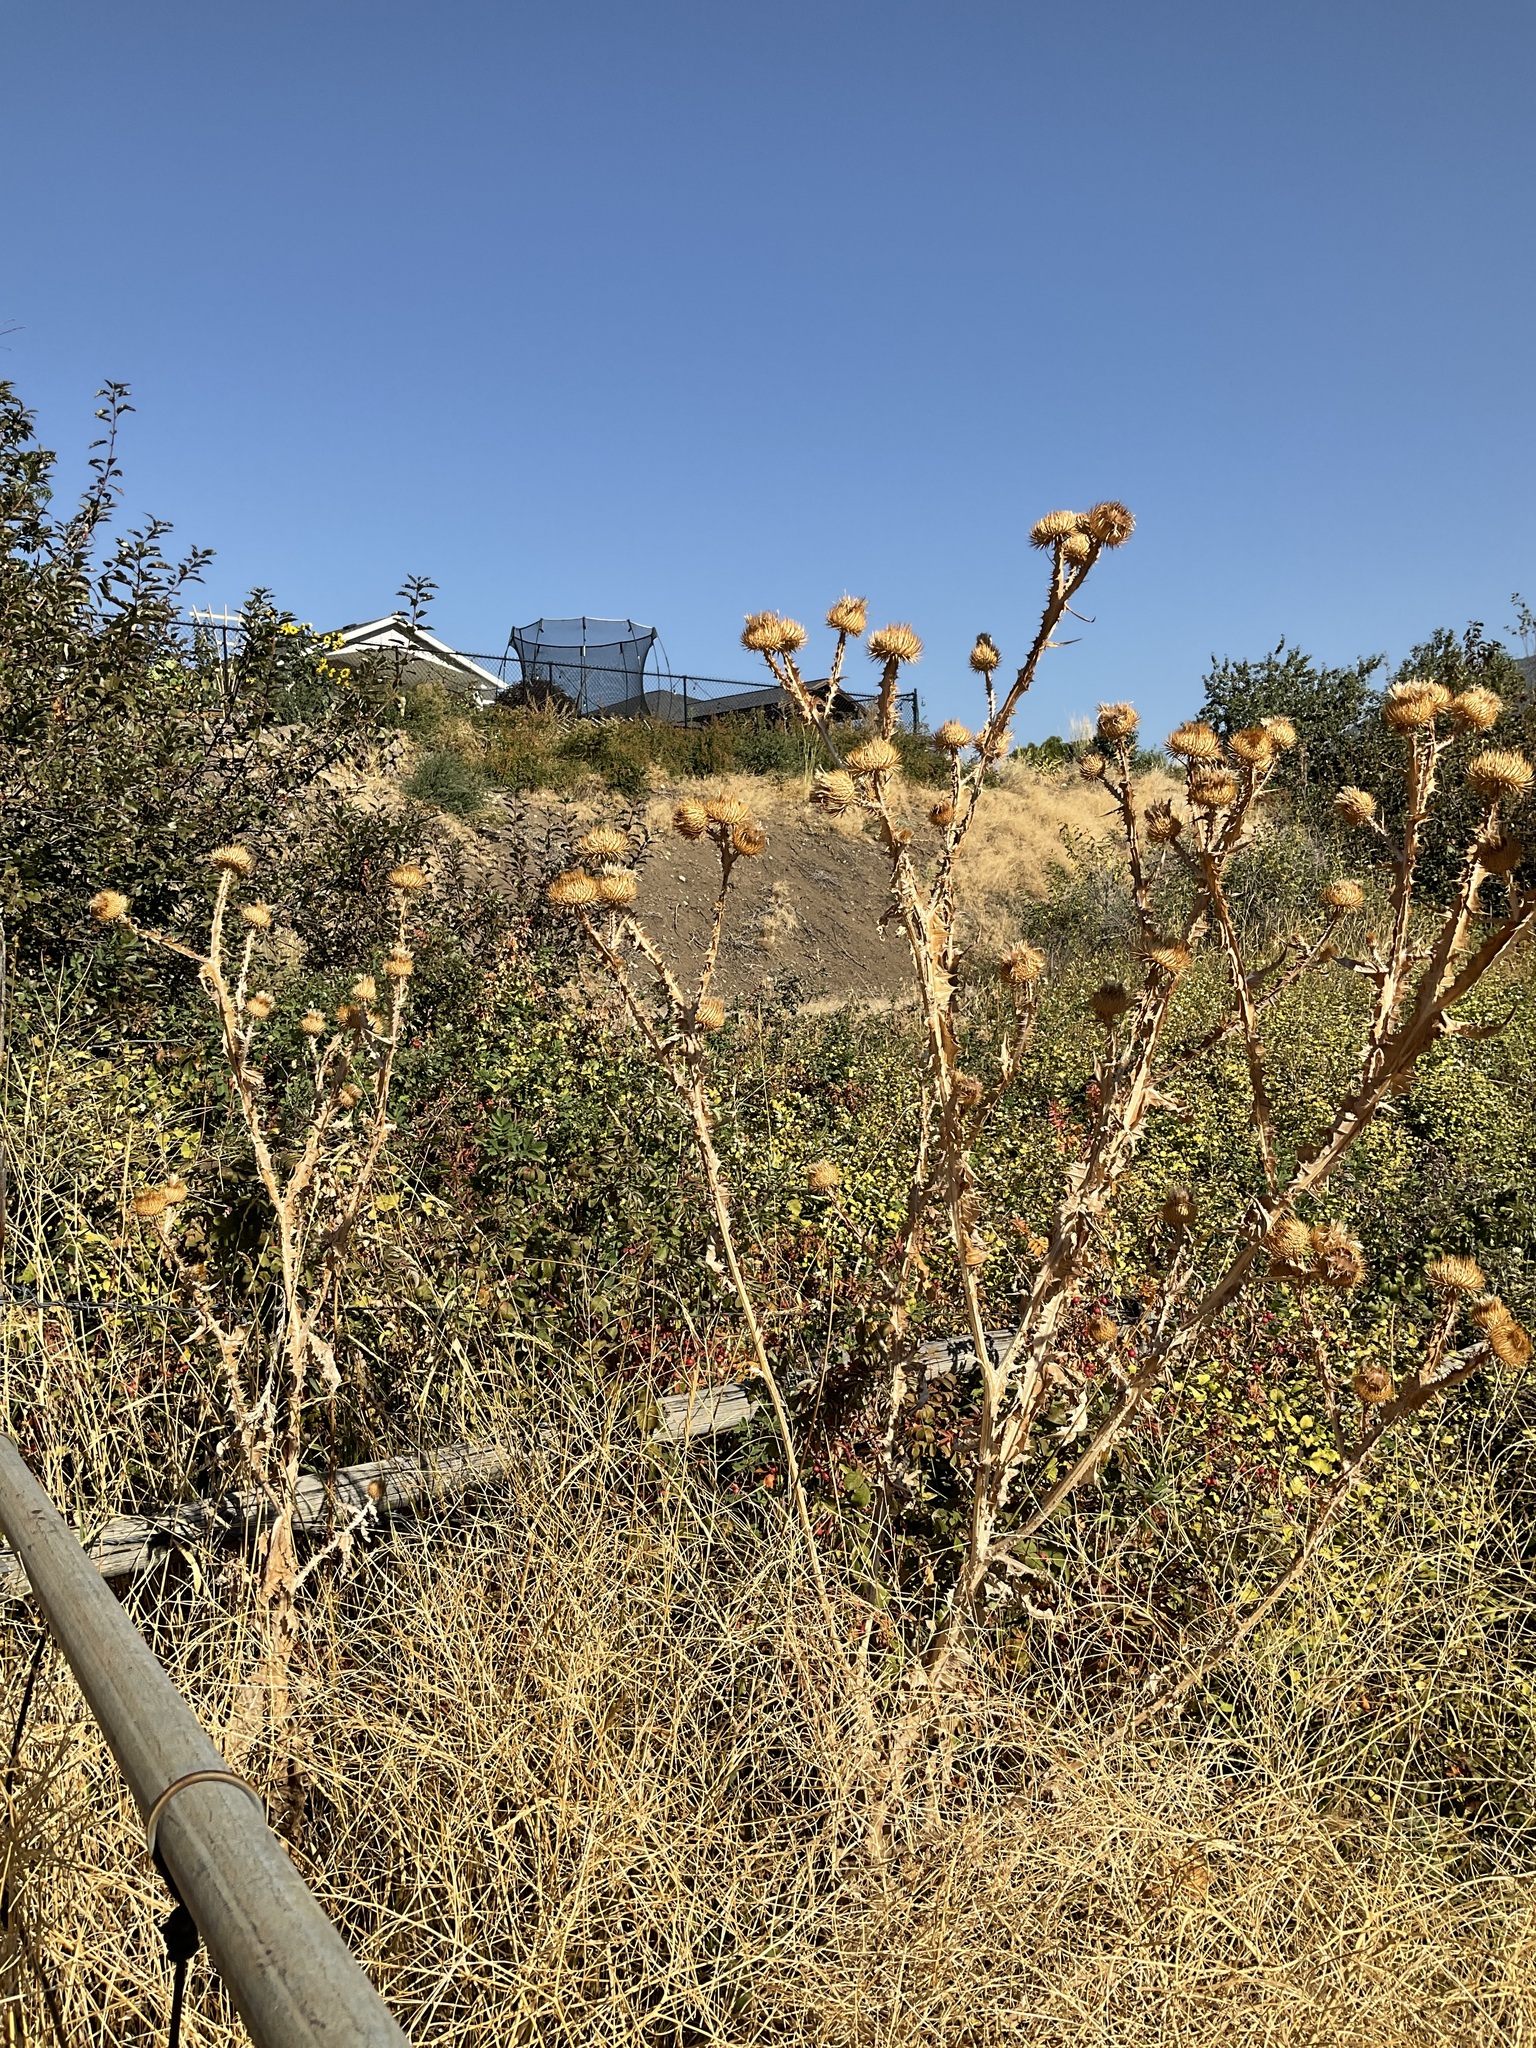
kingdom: Plantae
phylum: Tracheophyta
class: Magnoliopsida
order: Asterales
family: Asteraceae
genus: Onopordum
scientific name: Onopordum acanthium
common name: Scotch thistle
